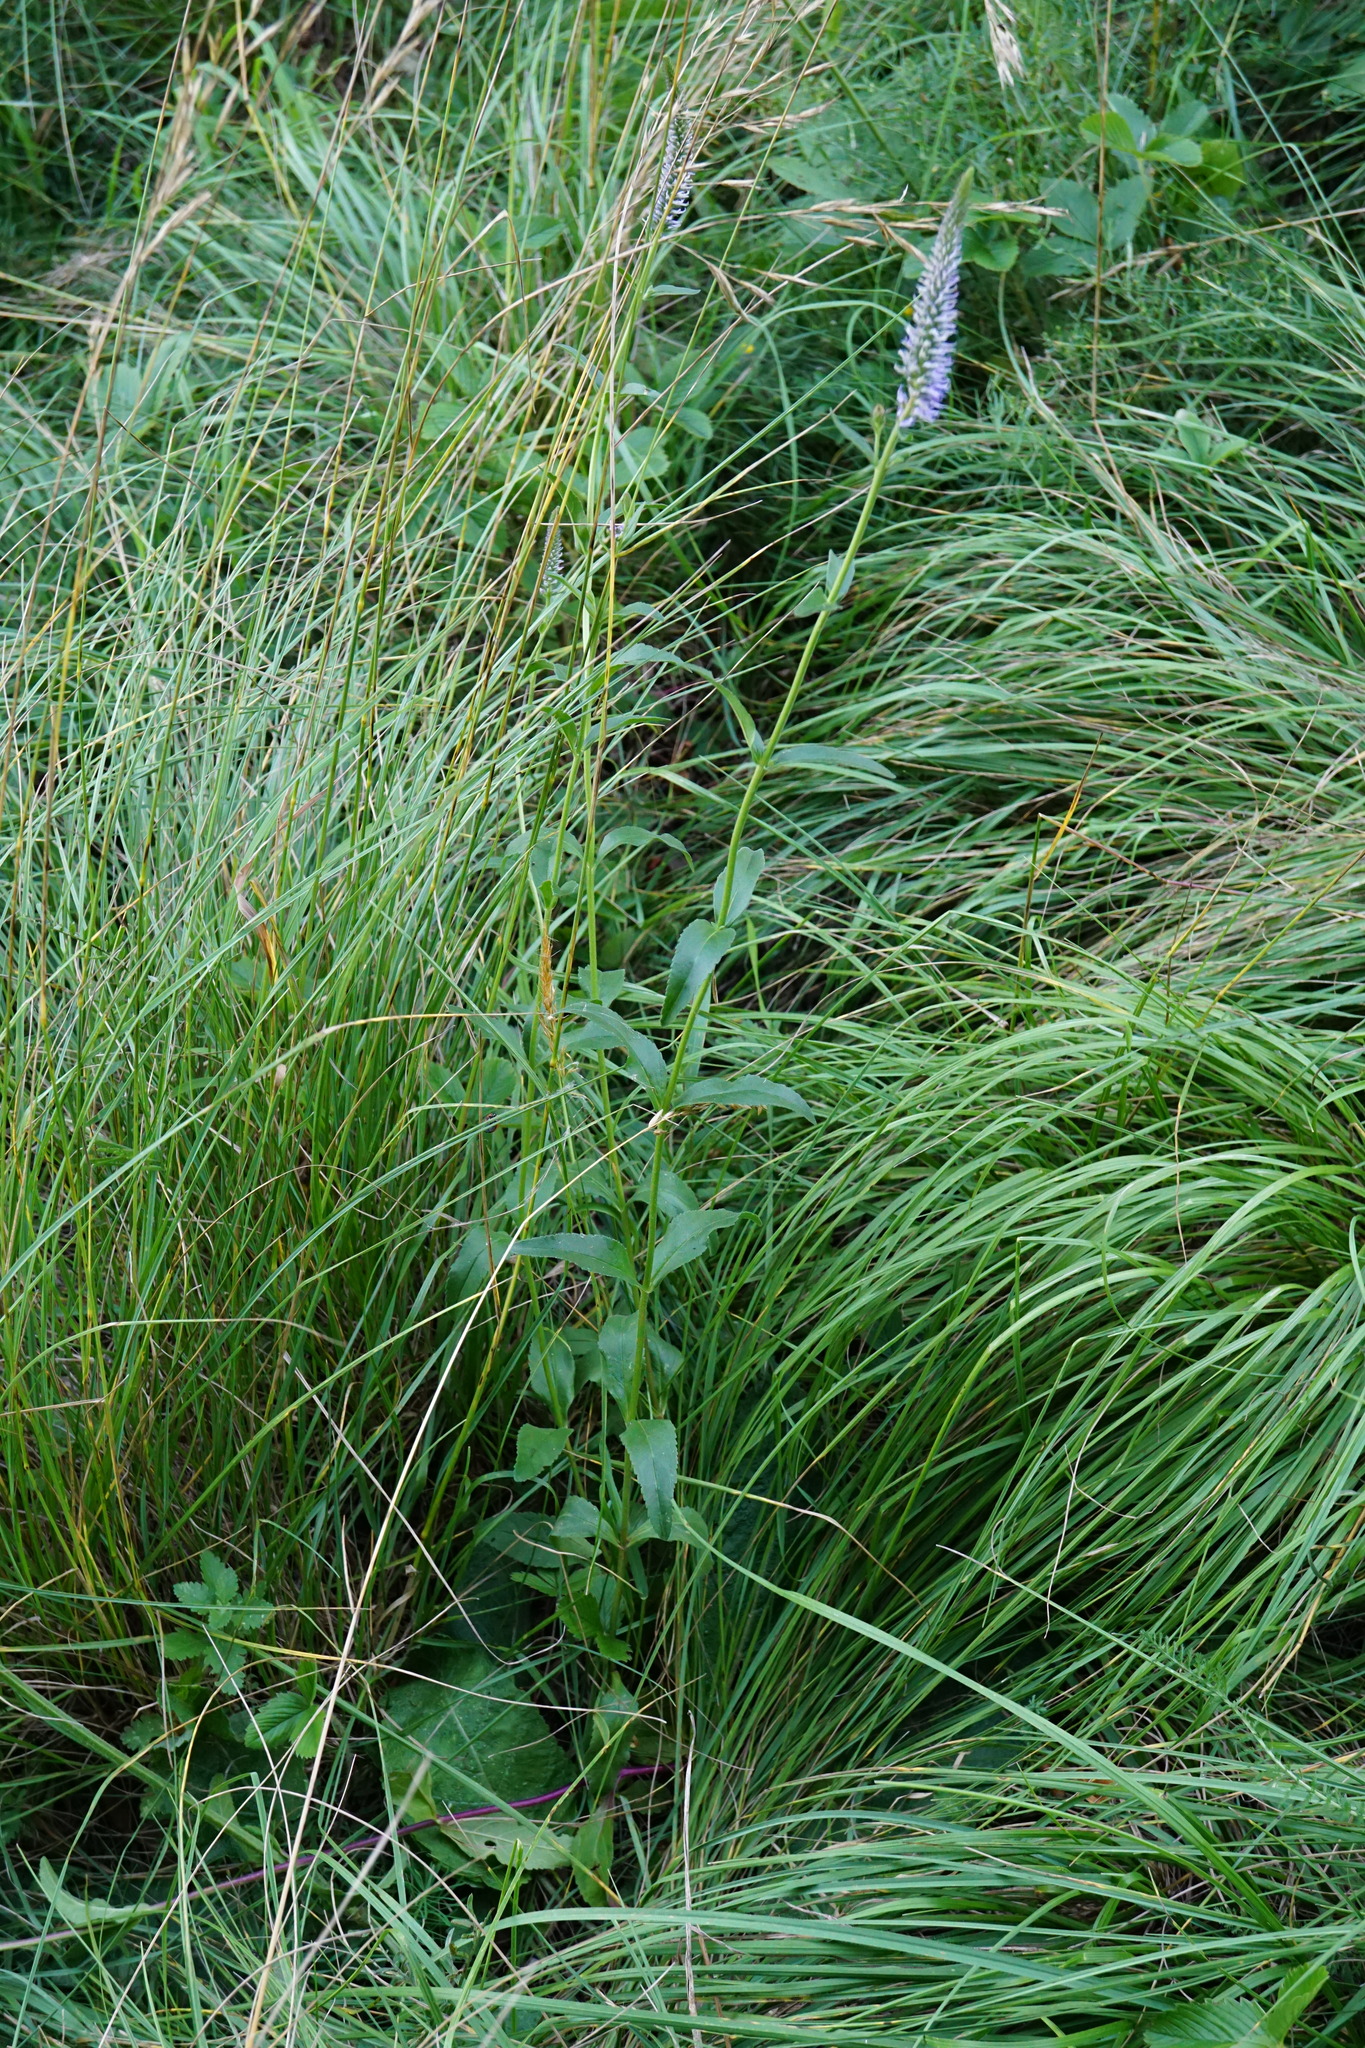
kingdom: Plantae
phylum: Tracheophyta
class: Magnoliopsida
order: Lamiales
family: Plantaginaceae
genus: Veronica
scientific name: Veronica orchidea
